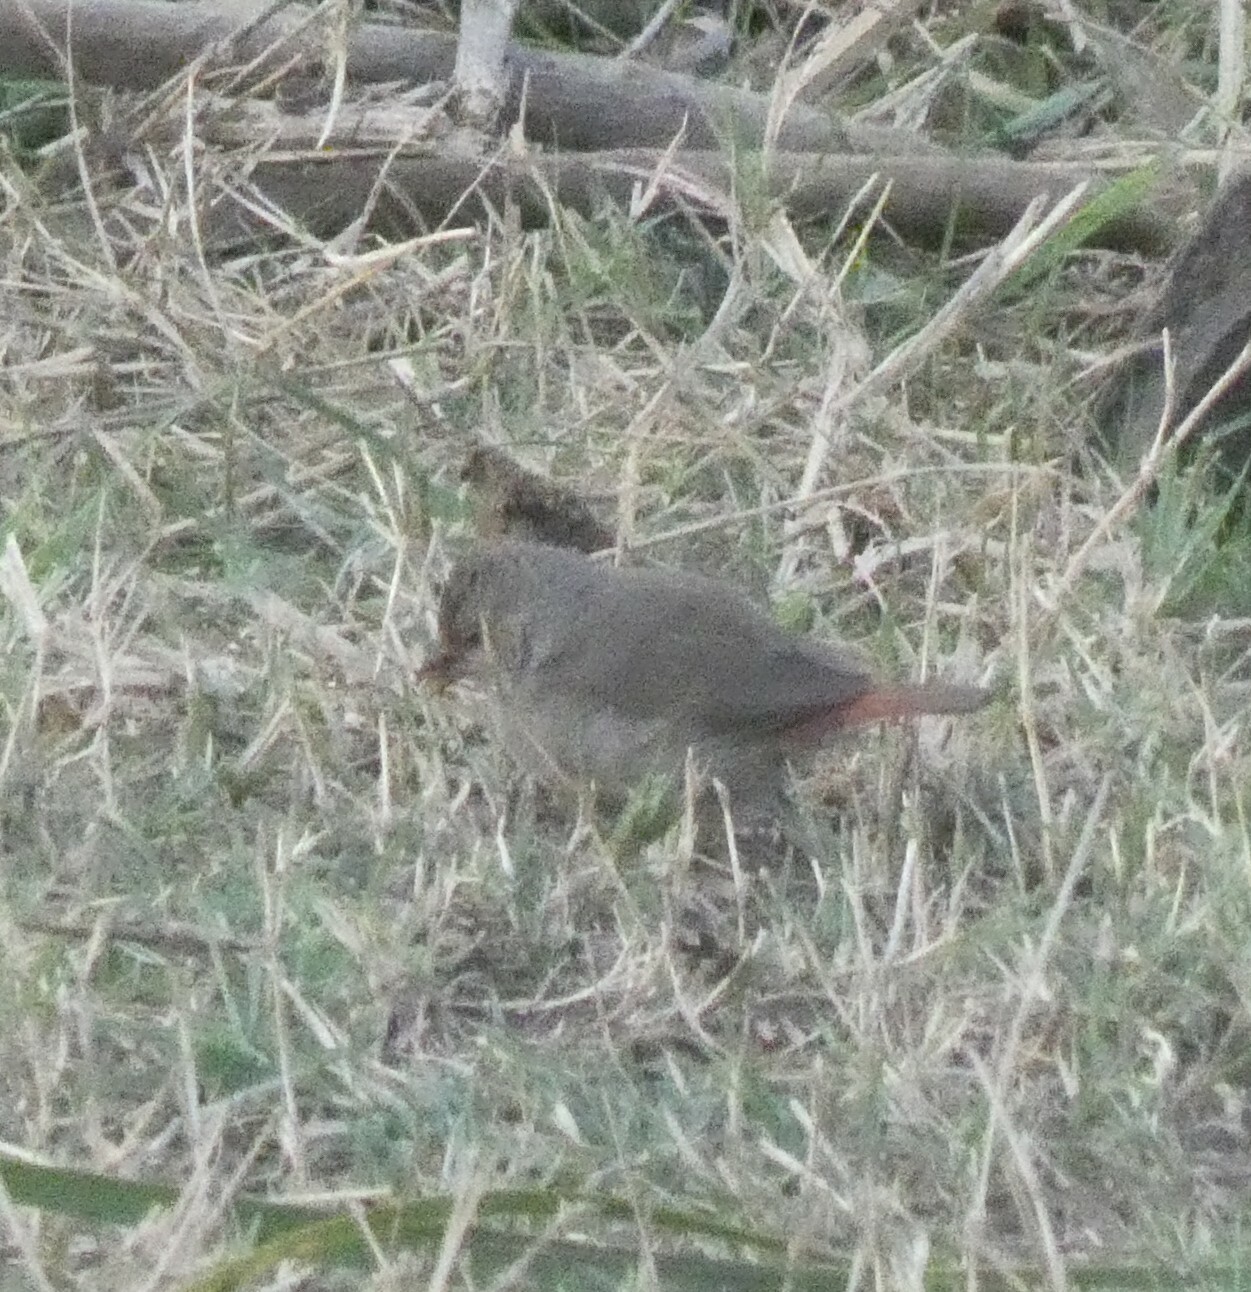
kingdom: Animalia
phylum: Chordata
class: Aves
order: Passeriformes
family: Estrildidae
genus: Lagonosticta
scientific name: Lagonosticta senegala
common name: Red-billed firefinch
